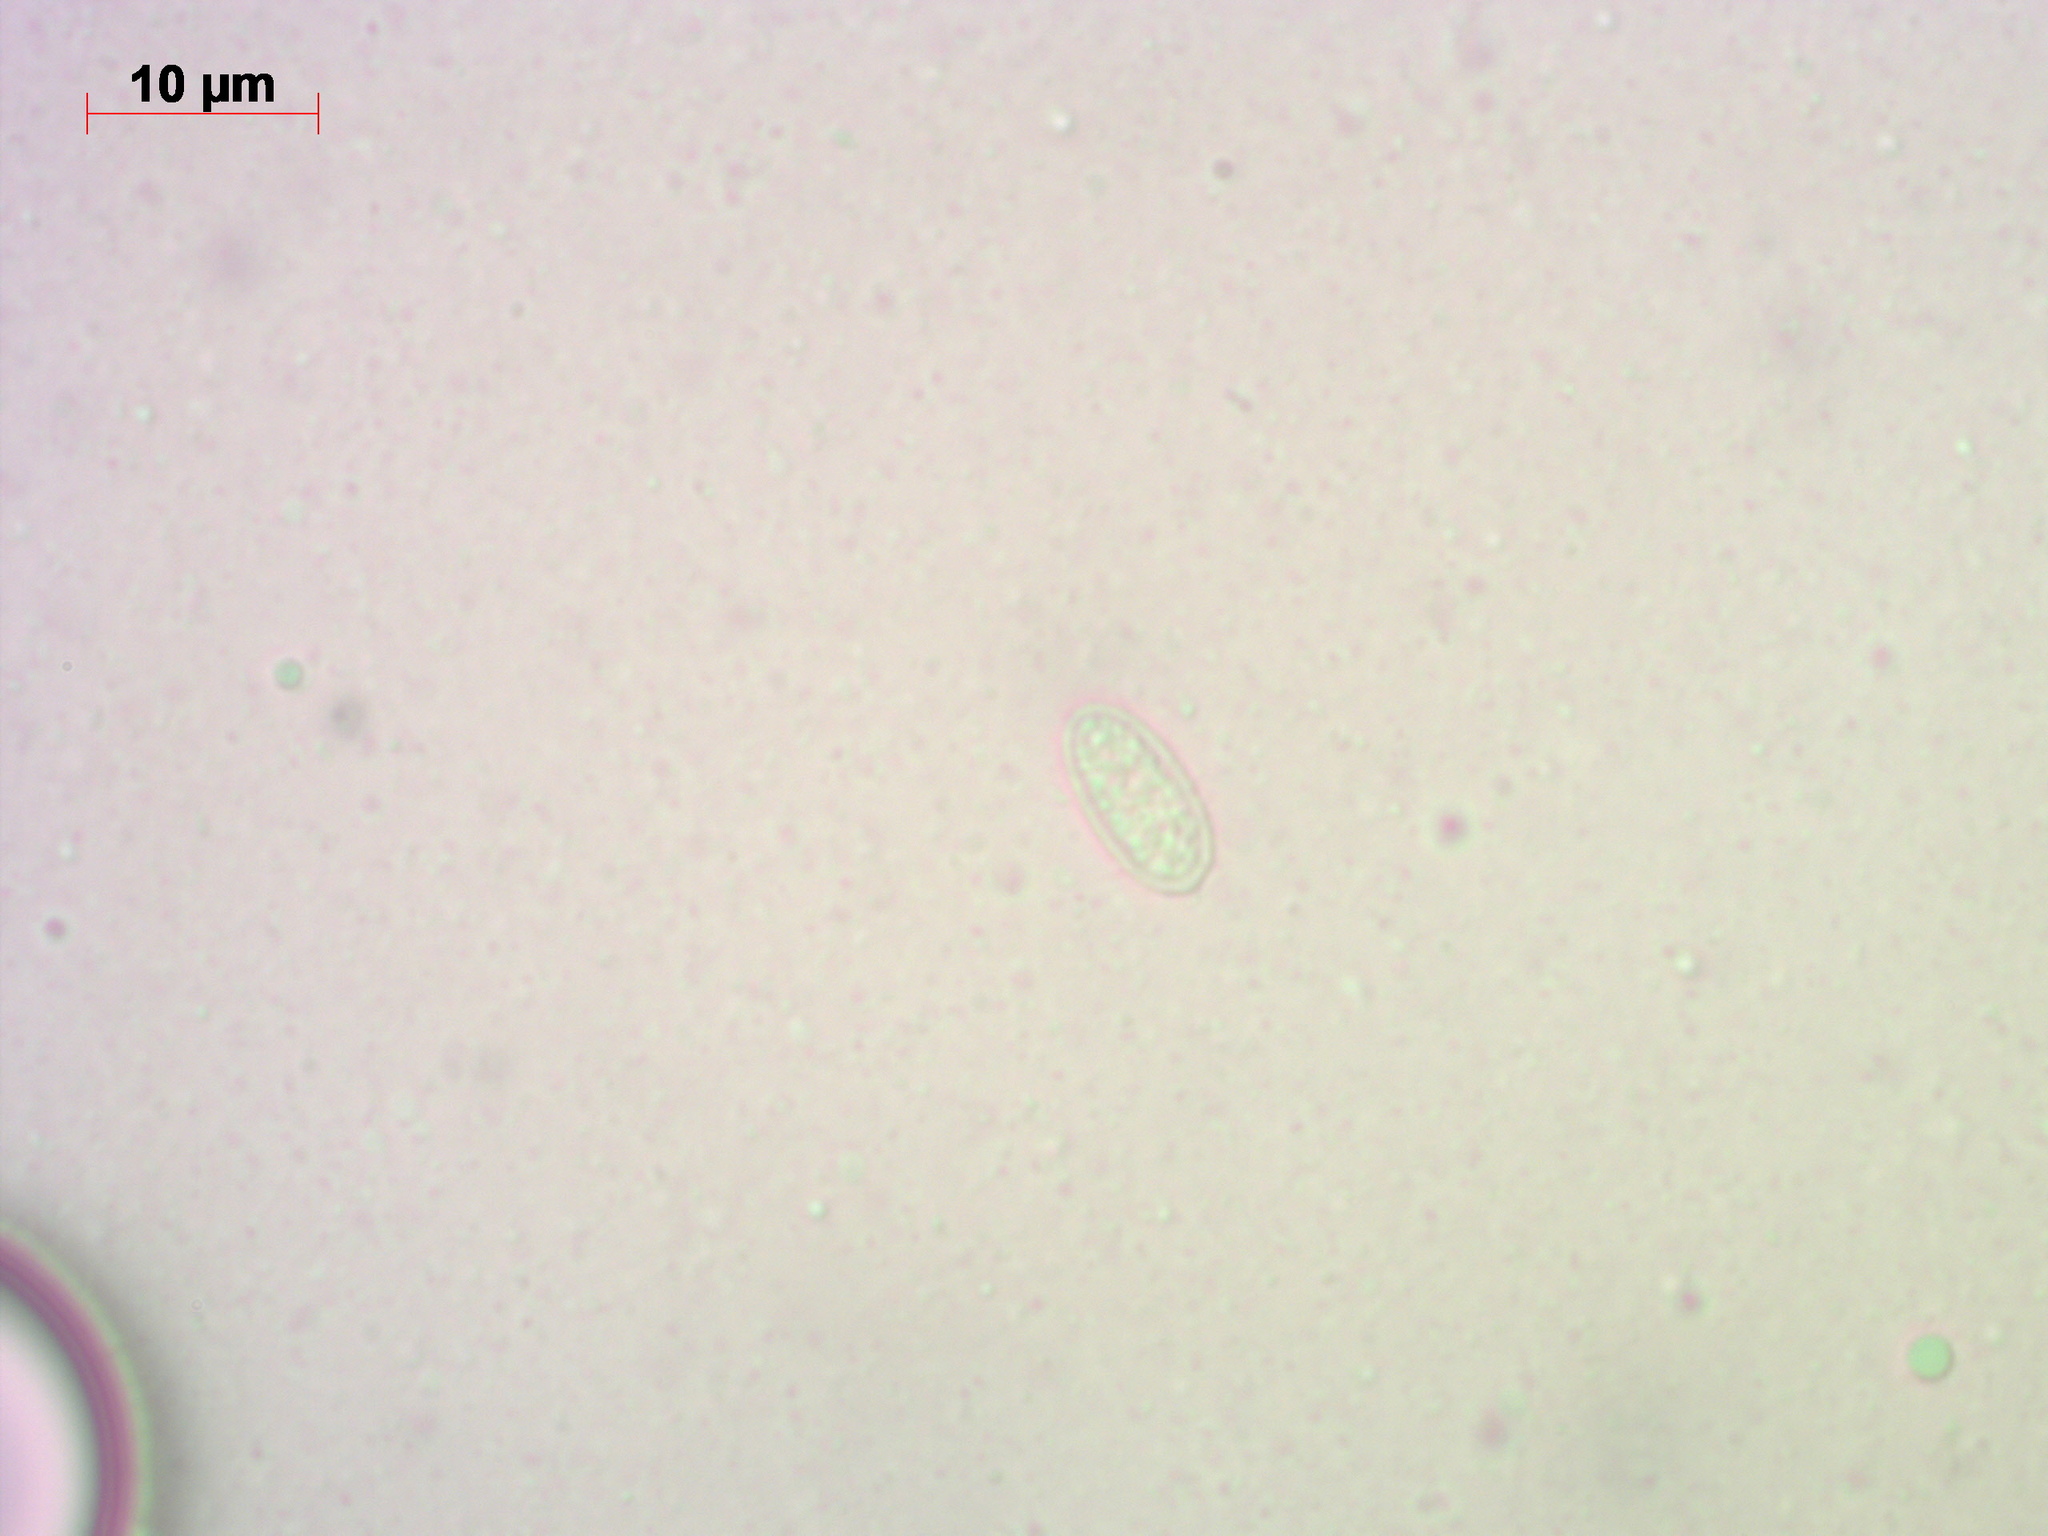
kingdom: Fungi
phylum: Basidiomycota
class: Agaricomycetes
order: Agaricales
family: Tricholomataceae
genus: Melanoleuca
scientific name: Melanoleuca strictipes
